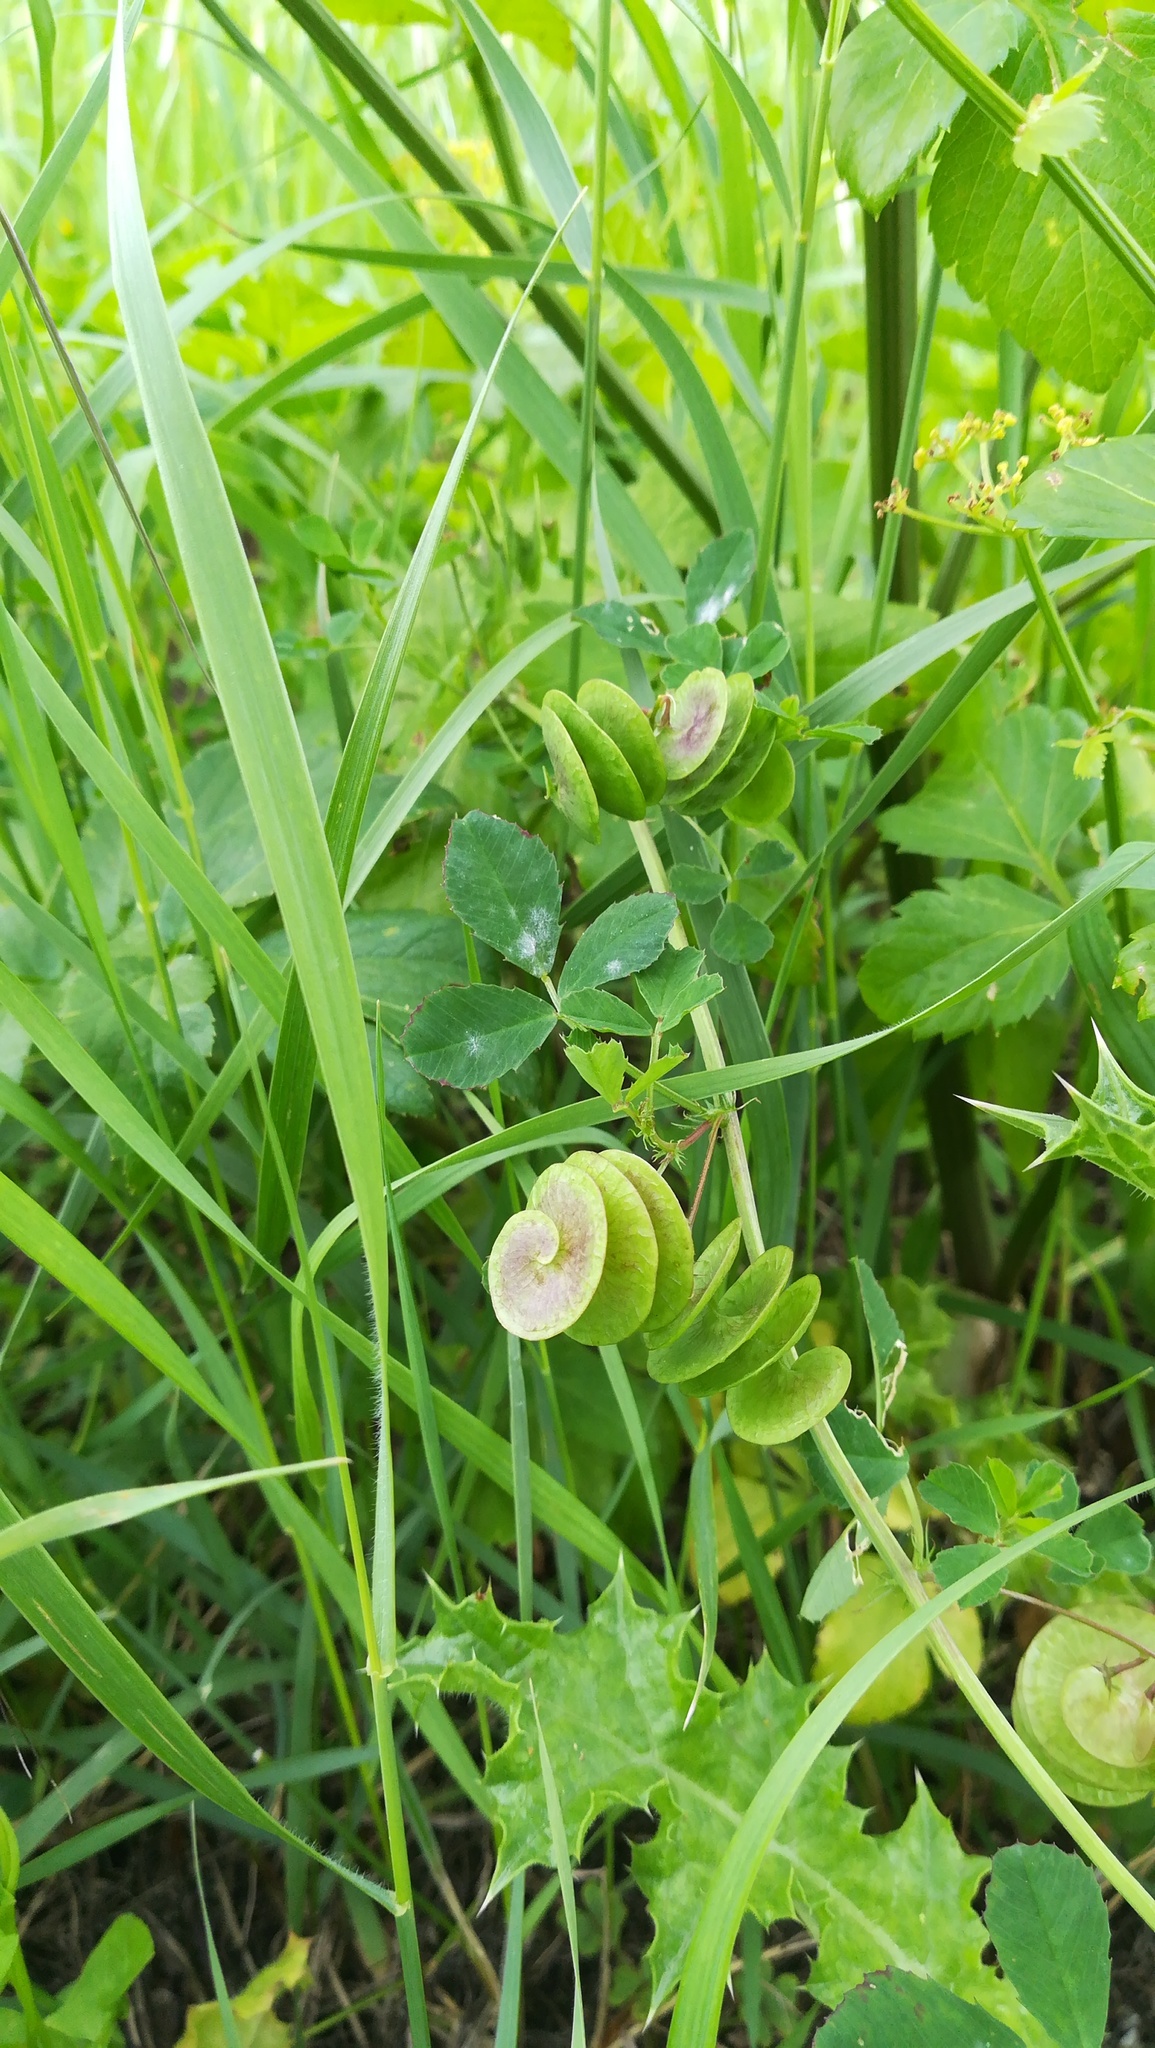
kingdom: Plantae
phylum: Tracheophyta
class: Magnoliopsida
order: Fabales
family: Fabaceae
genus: Medicago
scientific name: Medicago orbicularis
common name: Button medick
